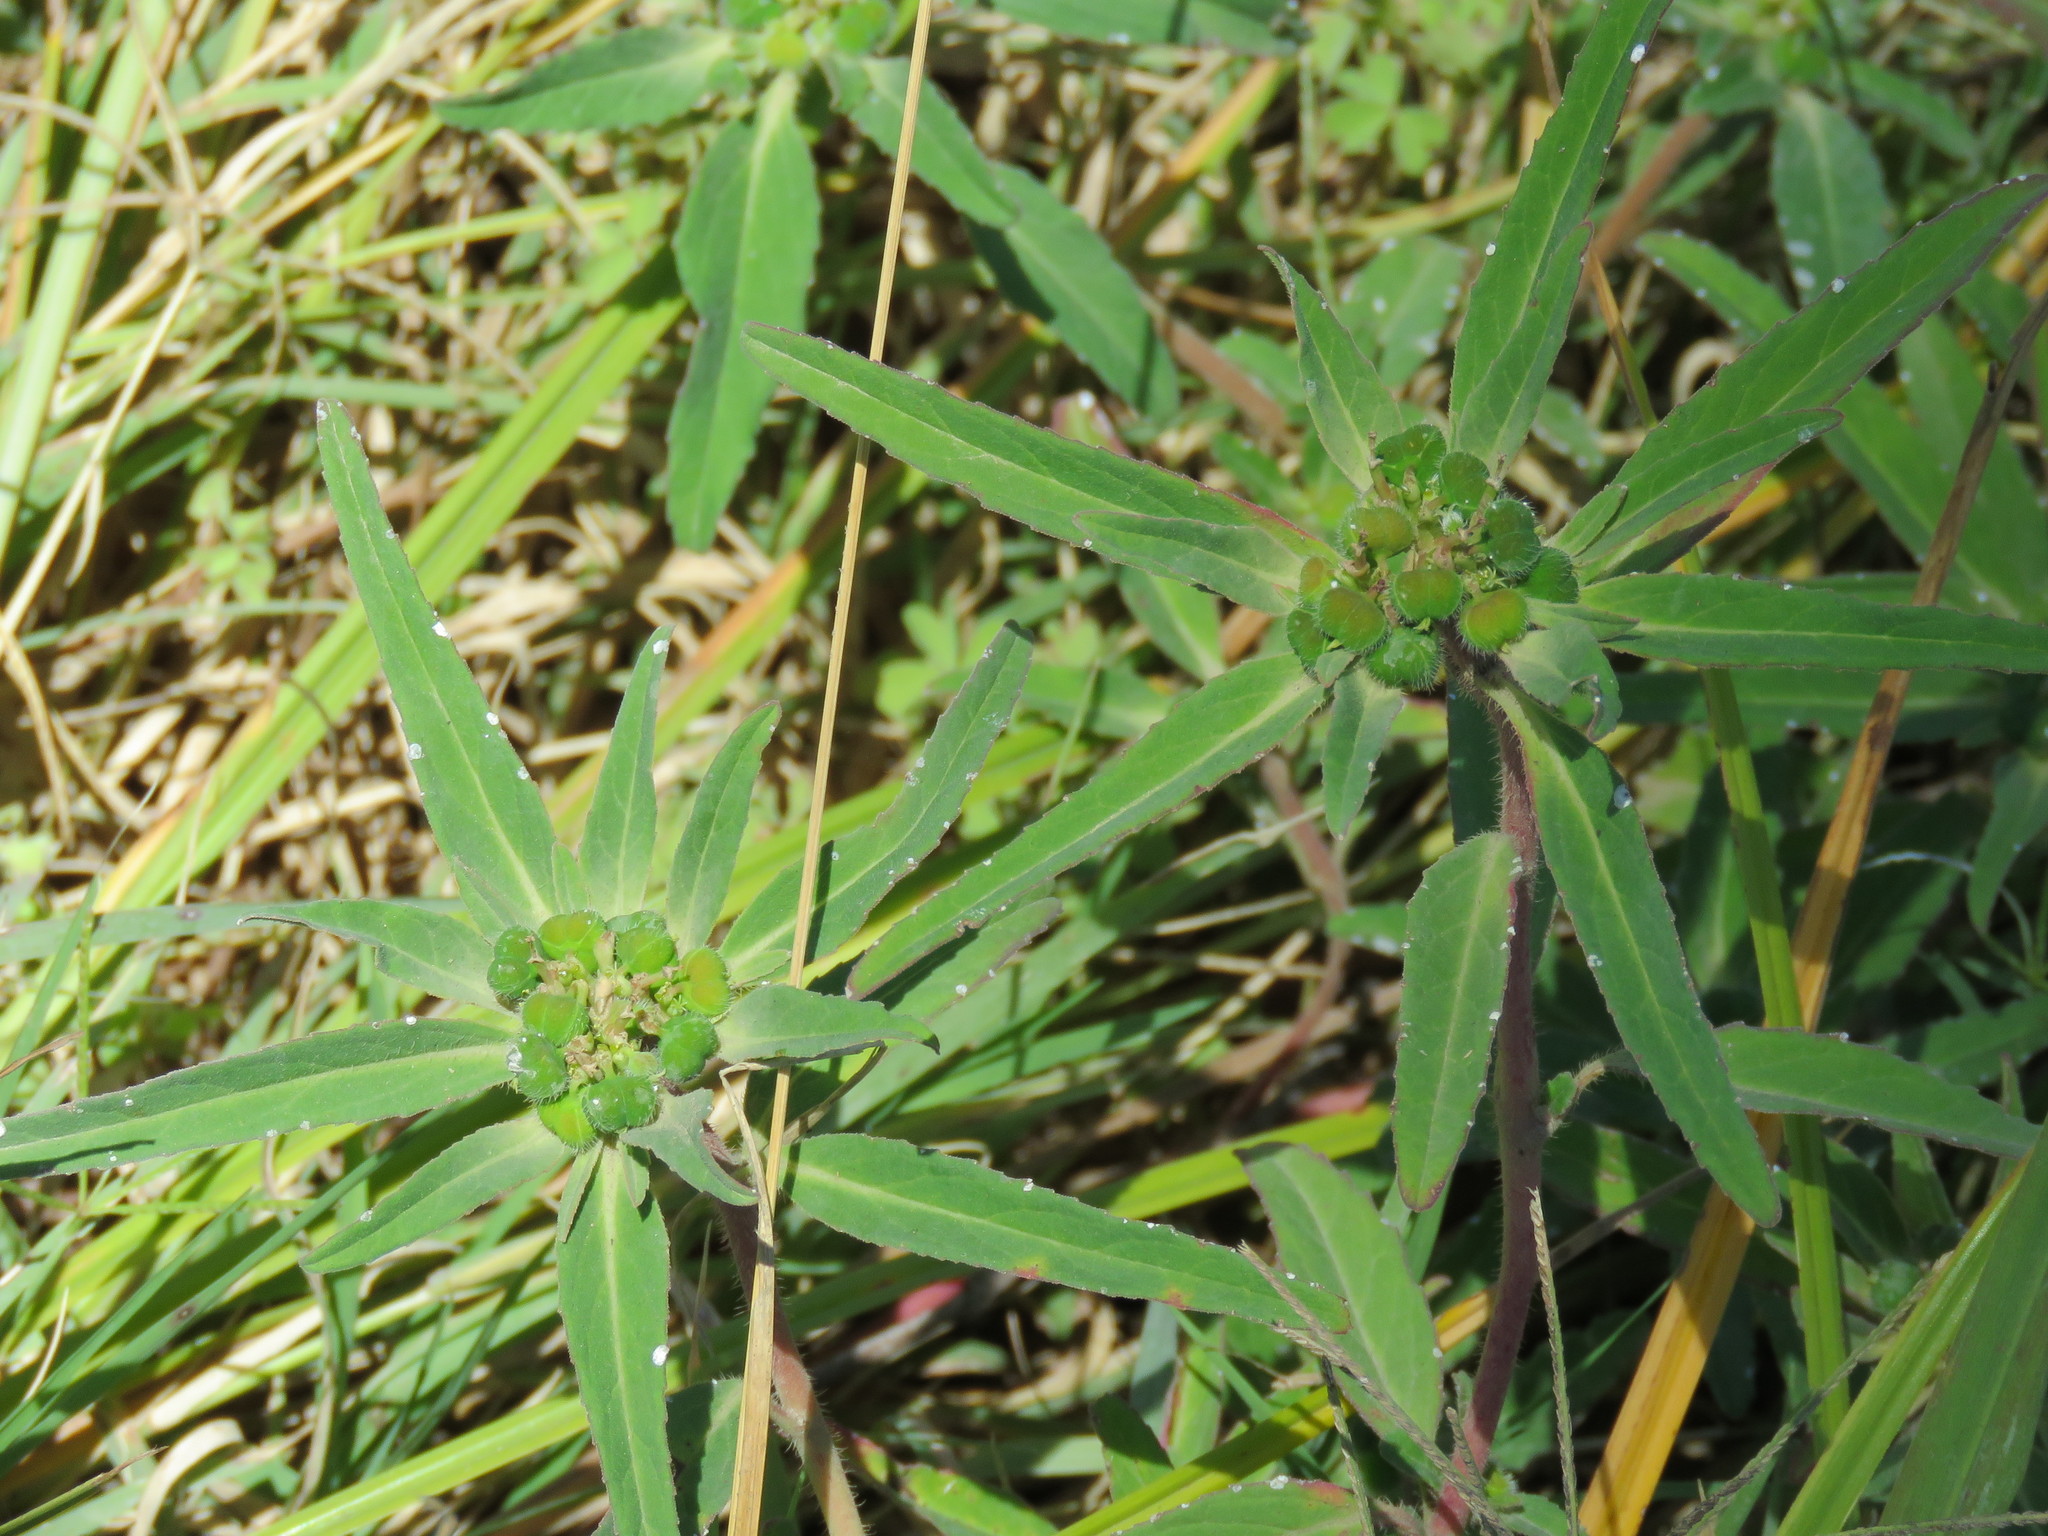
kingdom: Plantae
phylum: Tracheophyta
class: Magnoliopsida
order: Malpighiales
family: Euphorbiaceae
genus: Euphorbia
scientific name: Euphorbia cuphosperma
